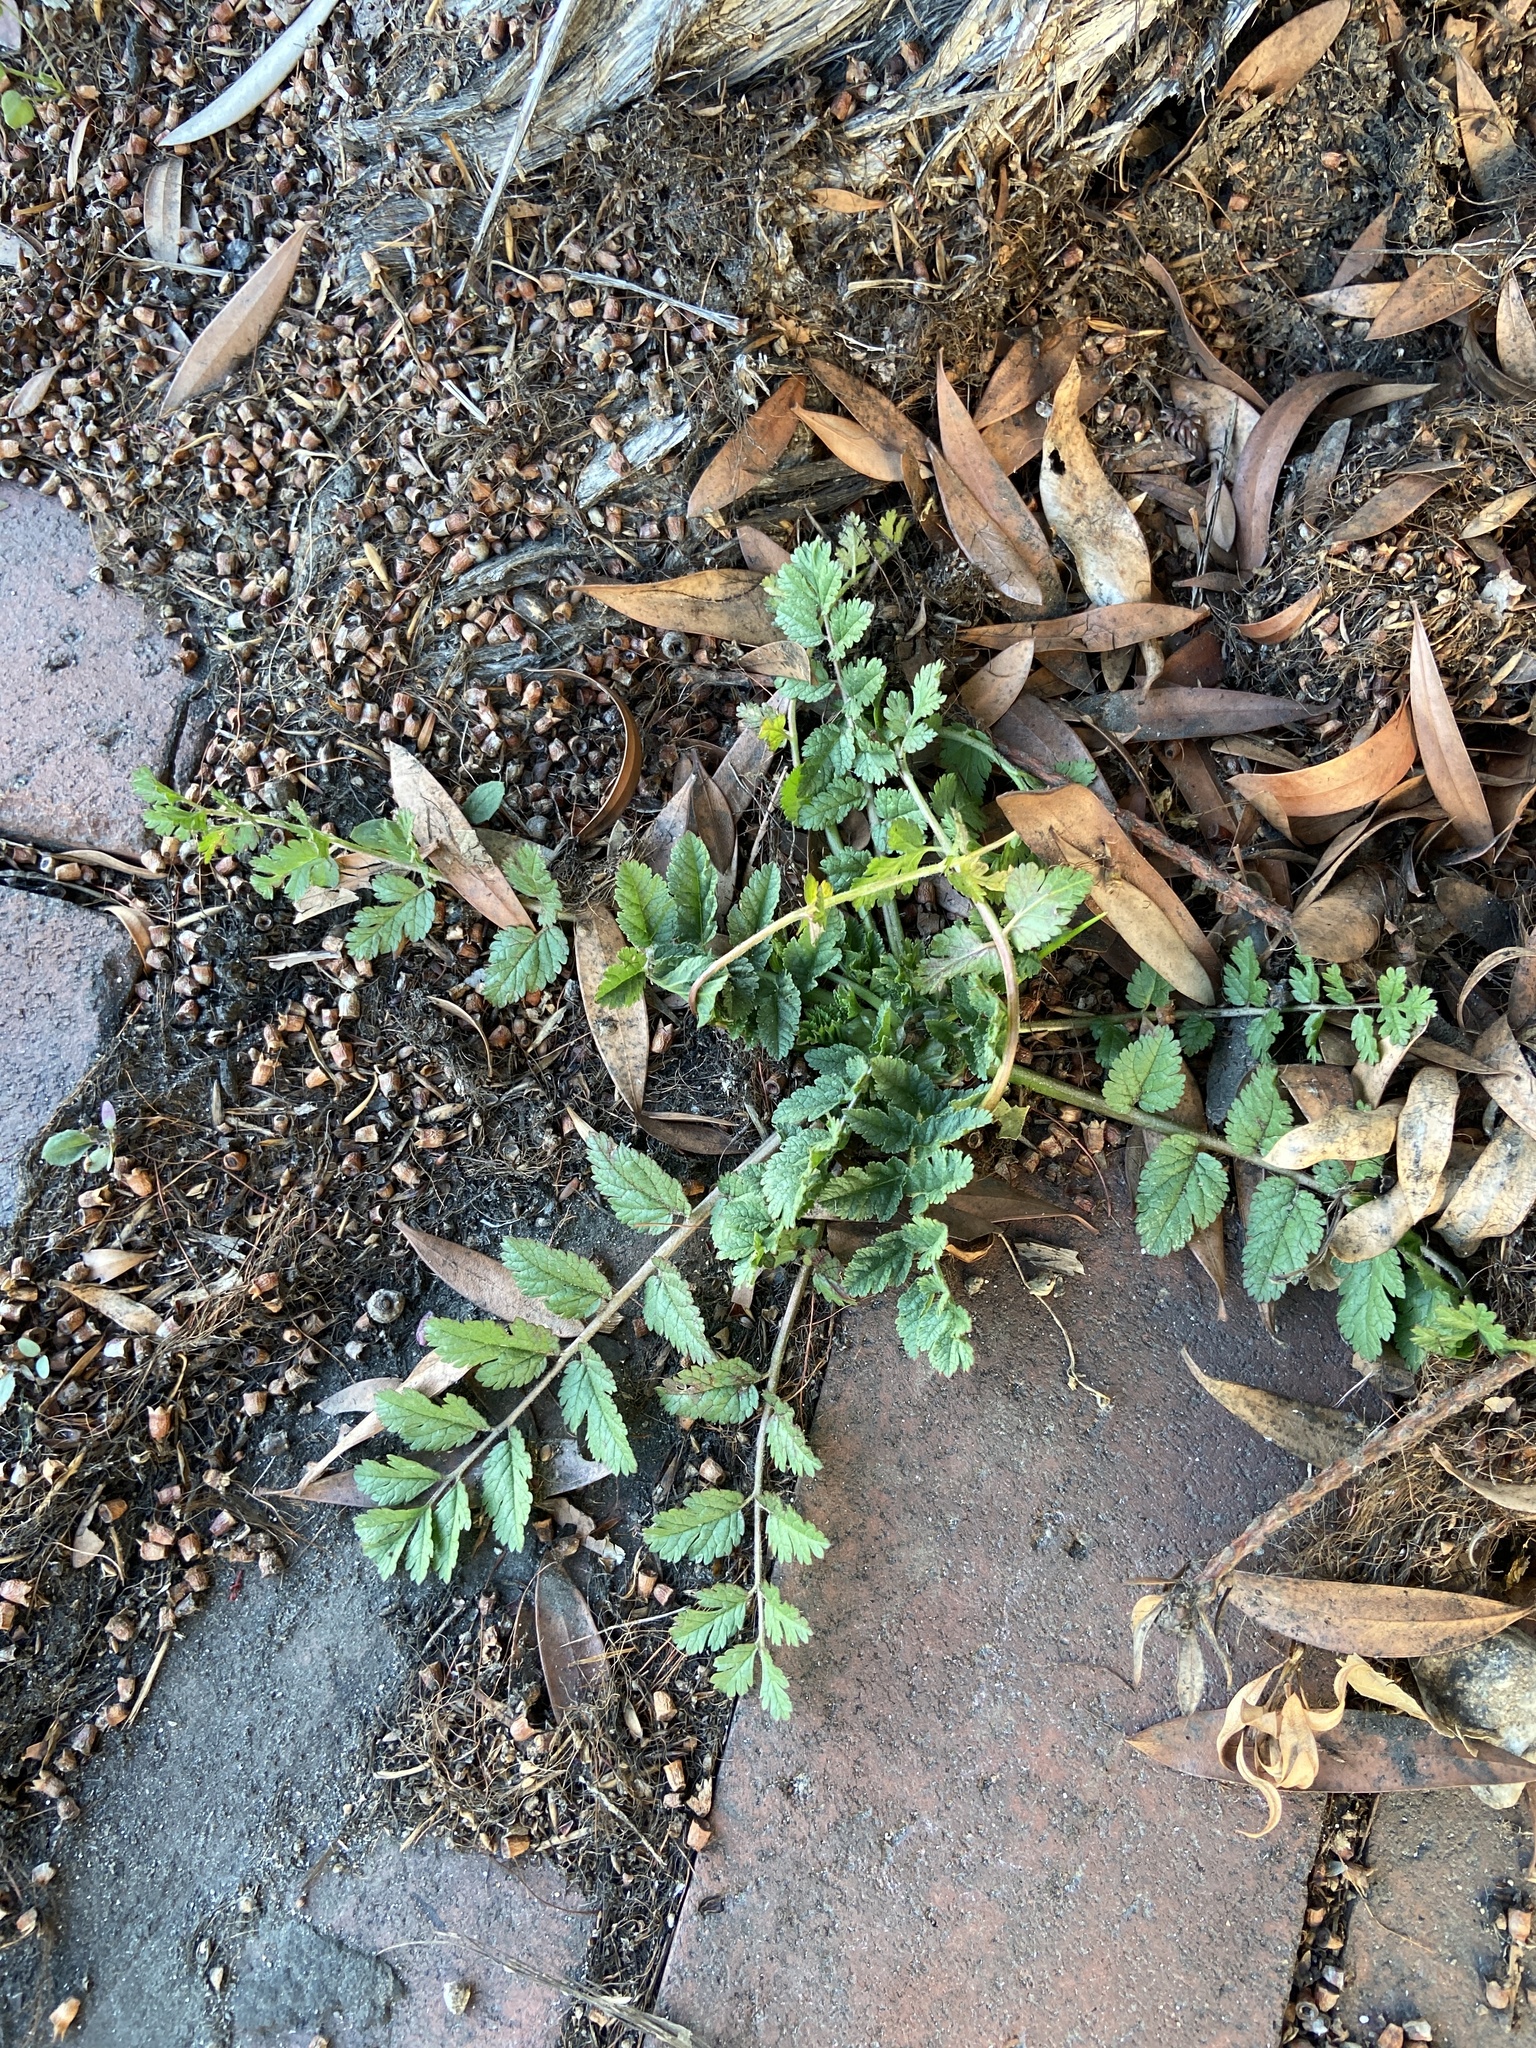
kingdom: Plantae
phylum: Tracheophyta
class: Magnoliopsida
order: Geraniales
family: Geraniaceae
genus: Erodium
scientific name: Erodium moschatum
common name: Musk stork's-bill
